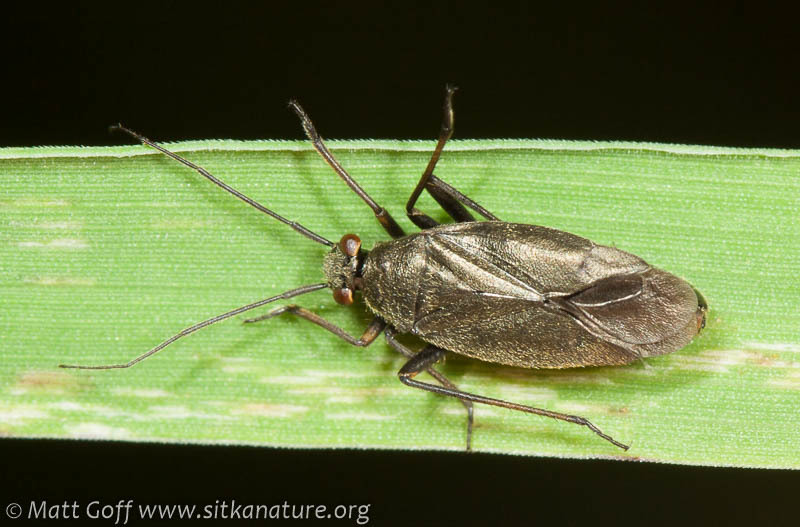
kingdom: Animalia
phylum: Arthropoda
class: Insecta
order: Hemiptera
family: Miridae
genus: Irbisia
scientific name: Irbisia sericans
